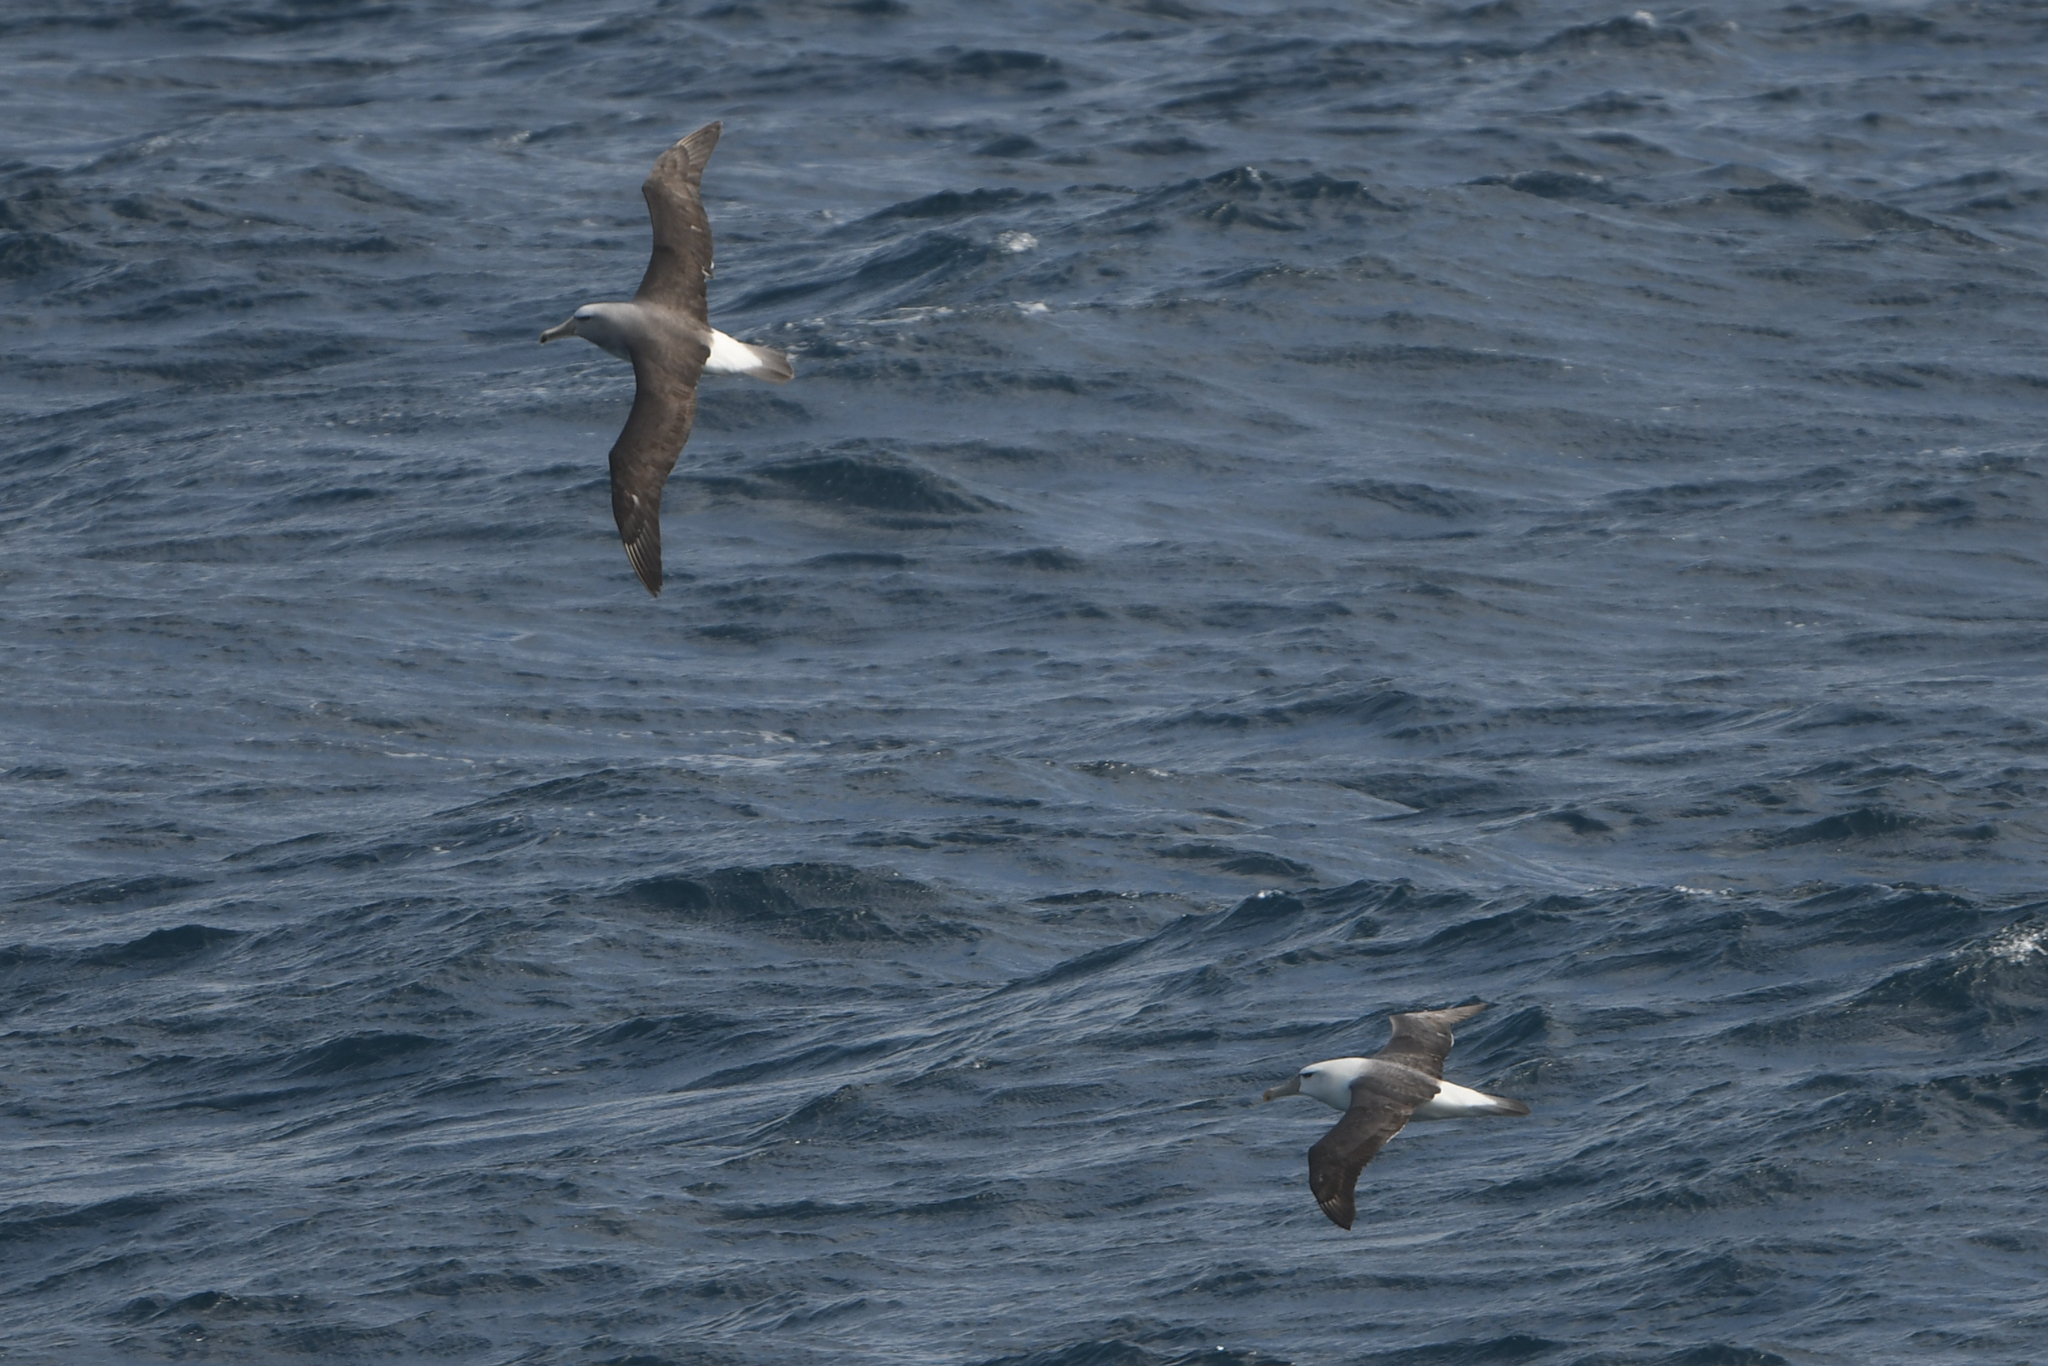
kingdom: Animalia
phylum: Chordata
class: Aves
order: Procellariiformes
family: Diomedeidae
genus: Thalassarche
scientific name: Thalassarche salvini
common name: Salvin's albatross
